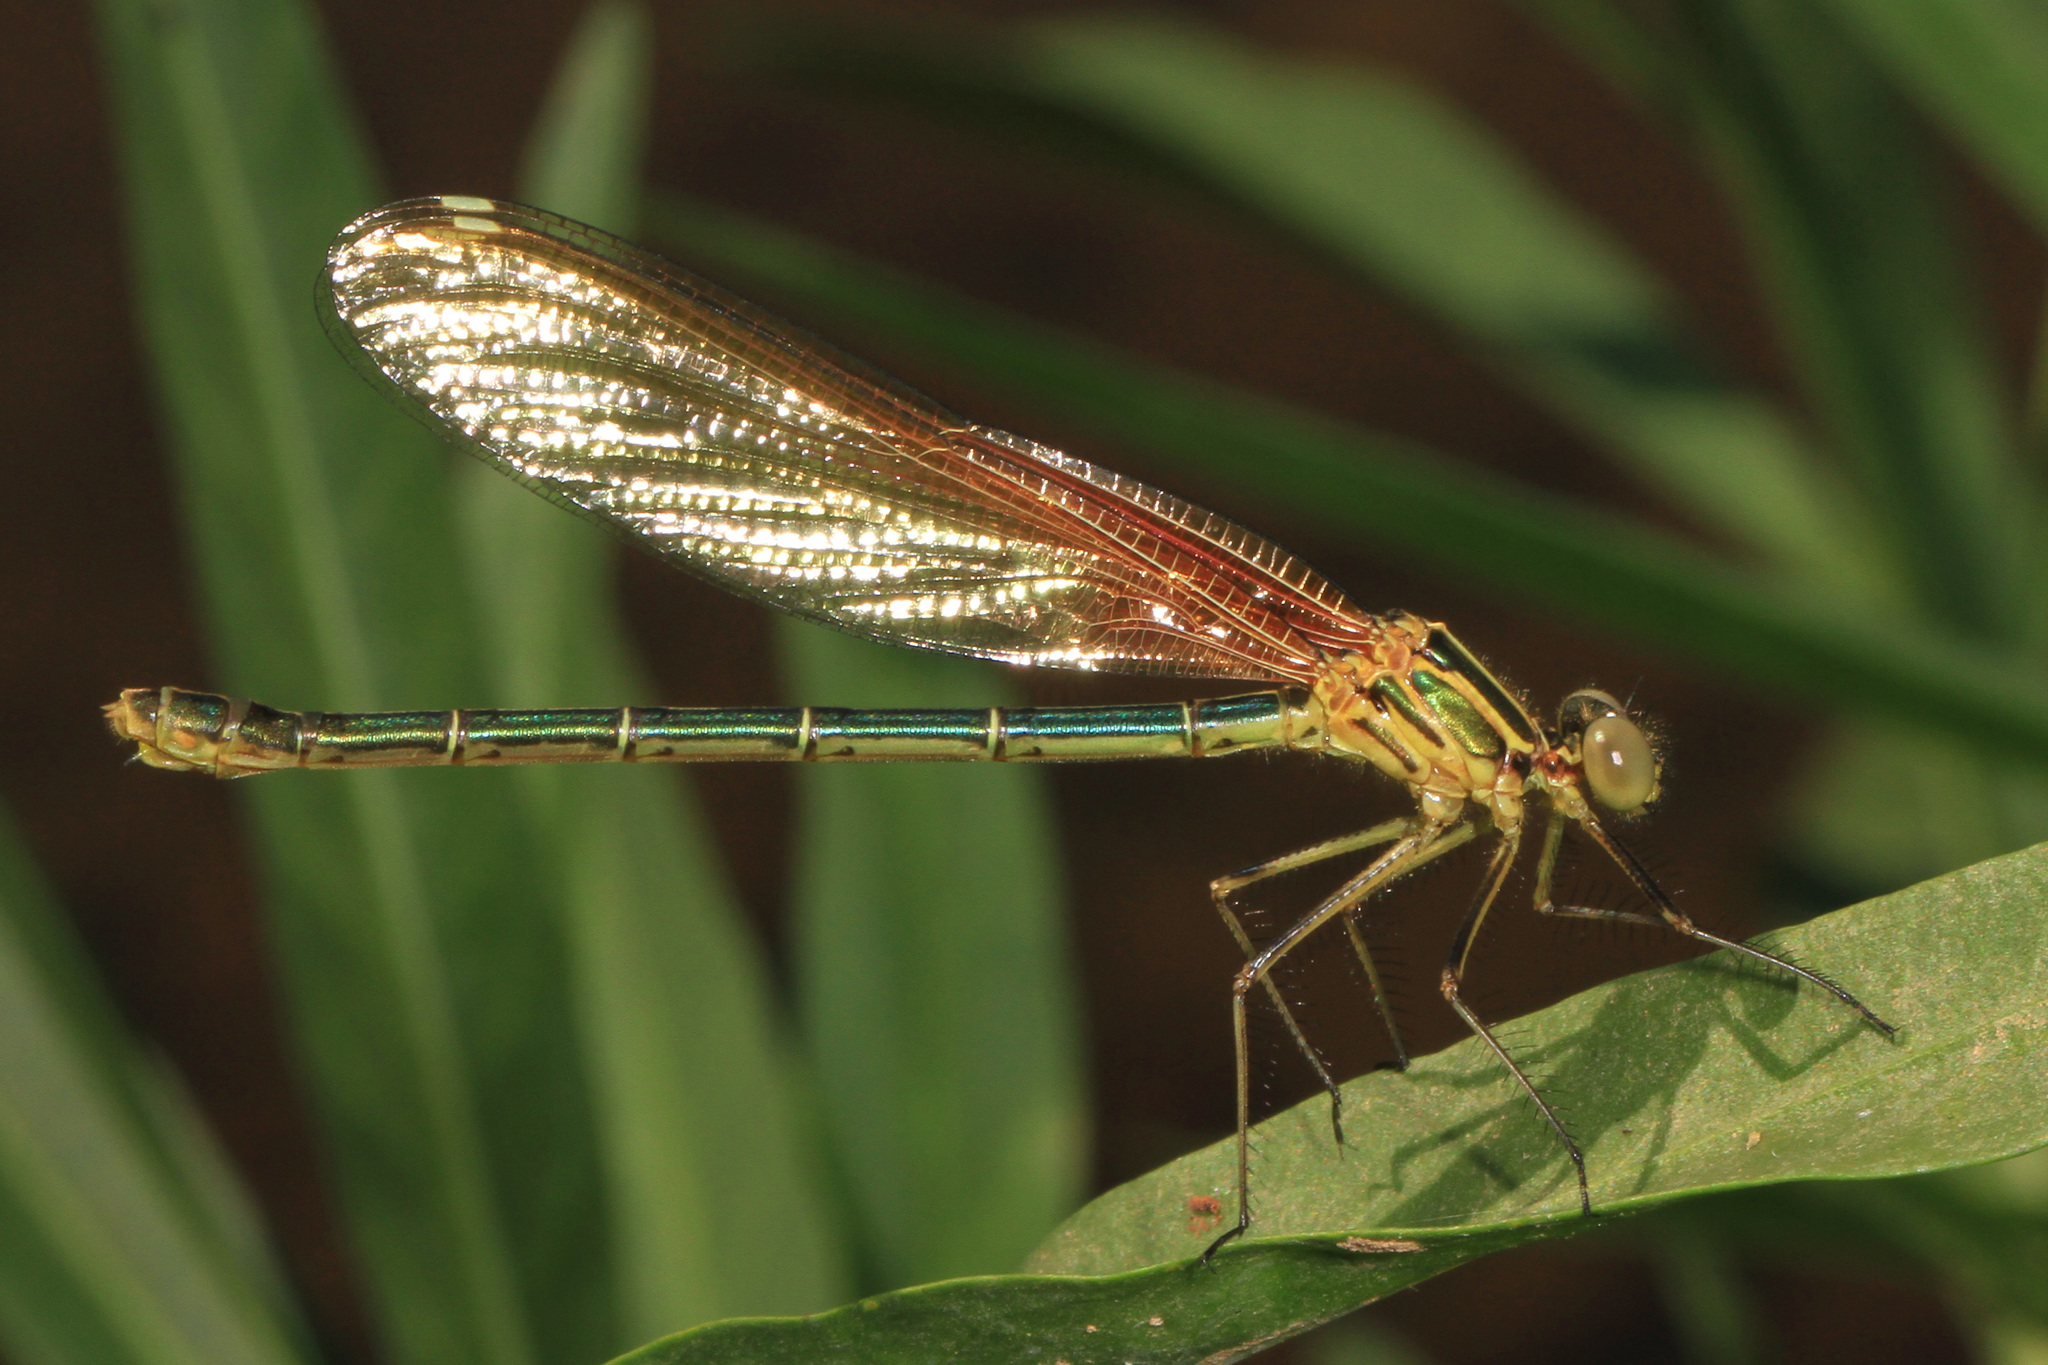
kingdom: Animalia
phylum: Arthropoda
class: Insecta
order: Odonata
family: Calopterygidae
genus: Hetaerina
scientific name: Hetaerina americana
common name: American rubyspot
